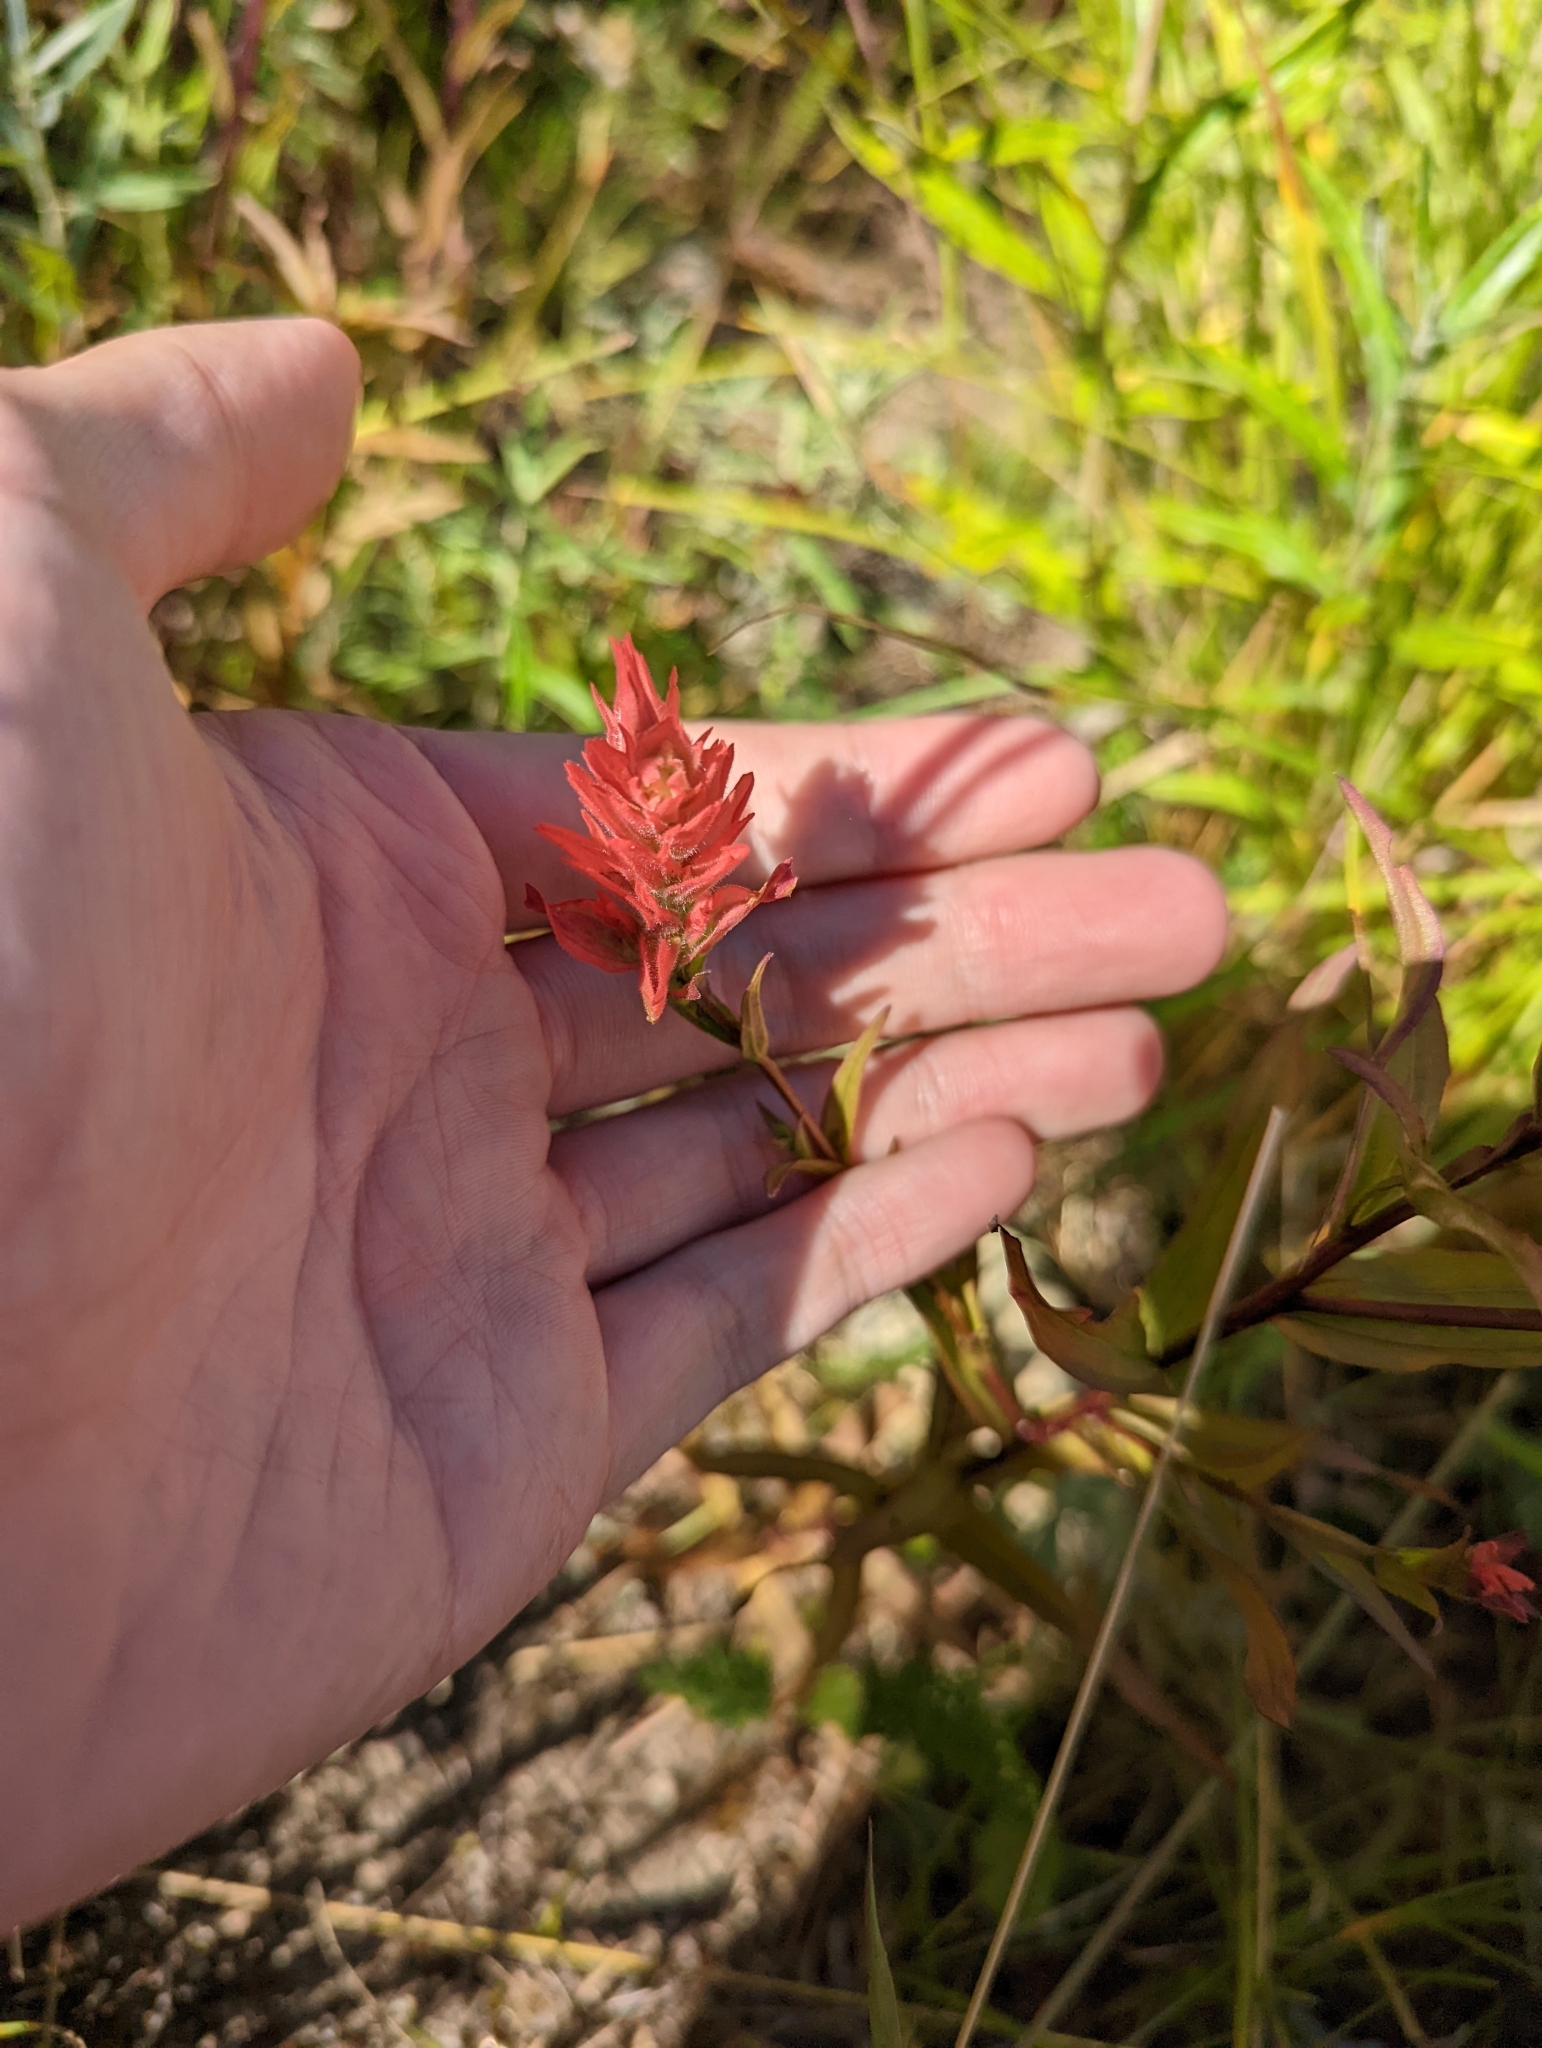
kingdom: Plantae
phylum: Tracheophyta
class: Magnoliopsida
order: Lamiales
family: Orobanchaceae
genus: Castilleja
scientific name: Castilleja miniata
